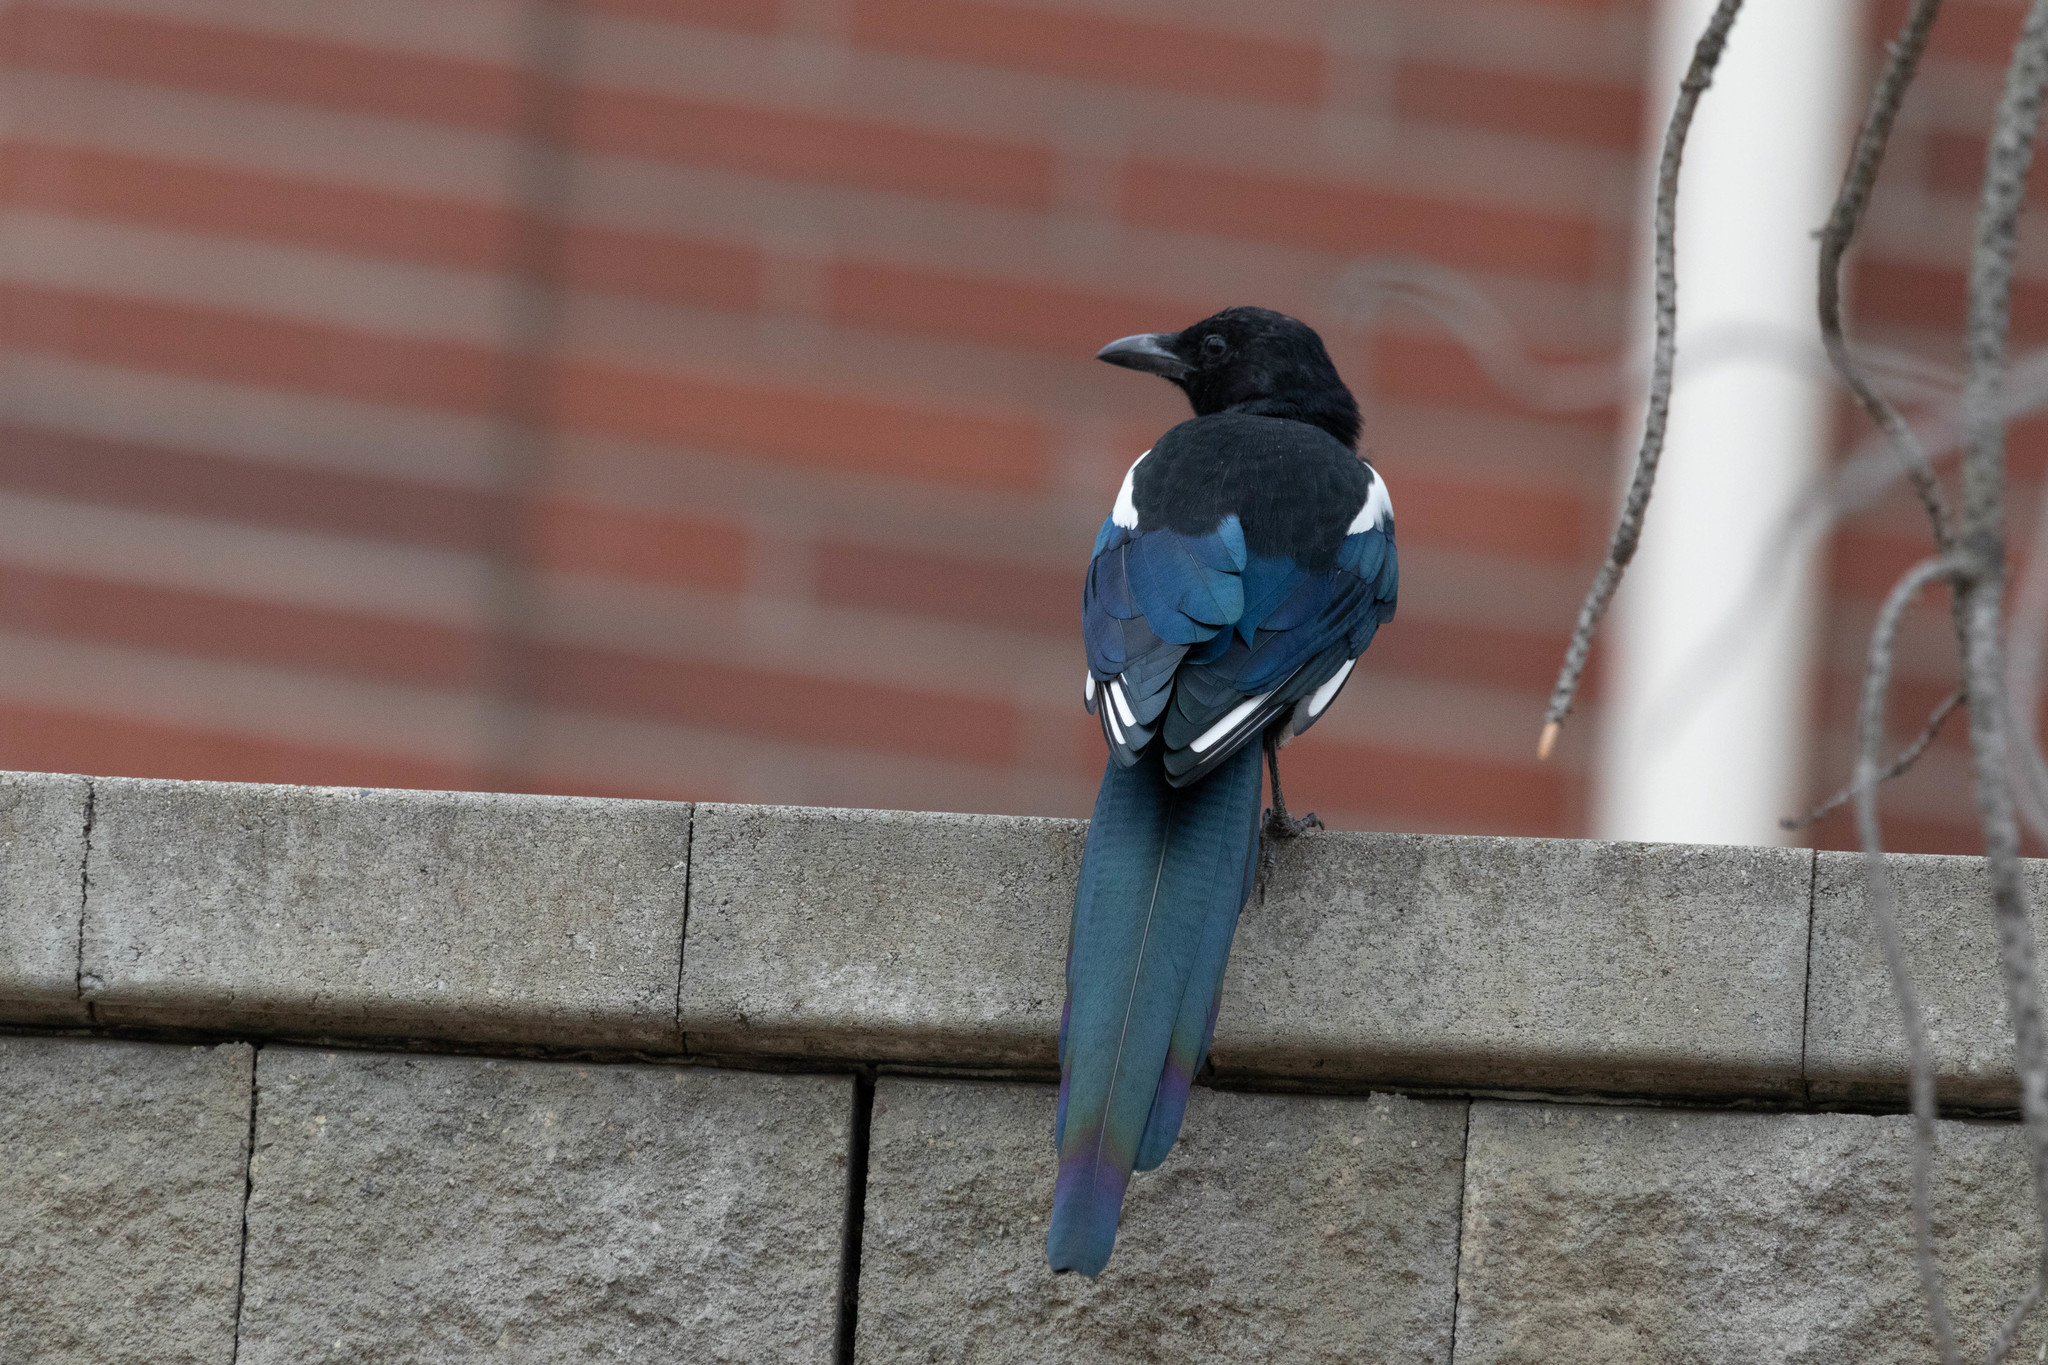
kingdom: Animalia
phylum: Chordata
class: Aves
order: Passeriformes
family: Corvidae
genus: Pica
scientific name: Pica hudsonia
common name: Black-billed magpie
